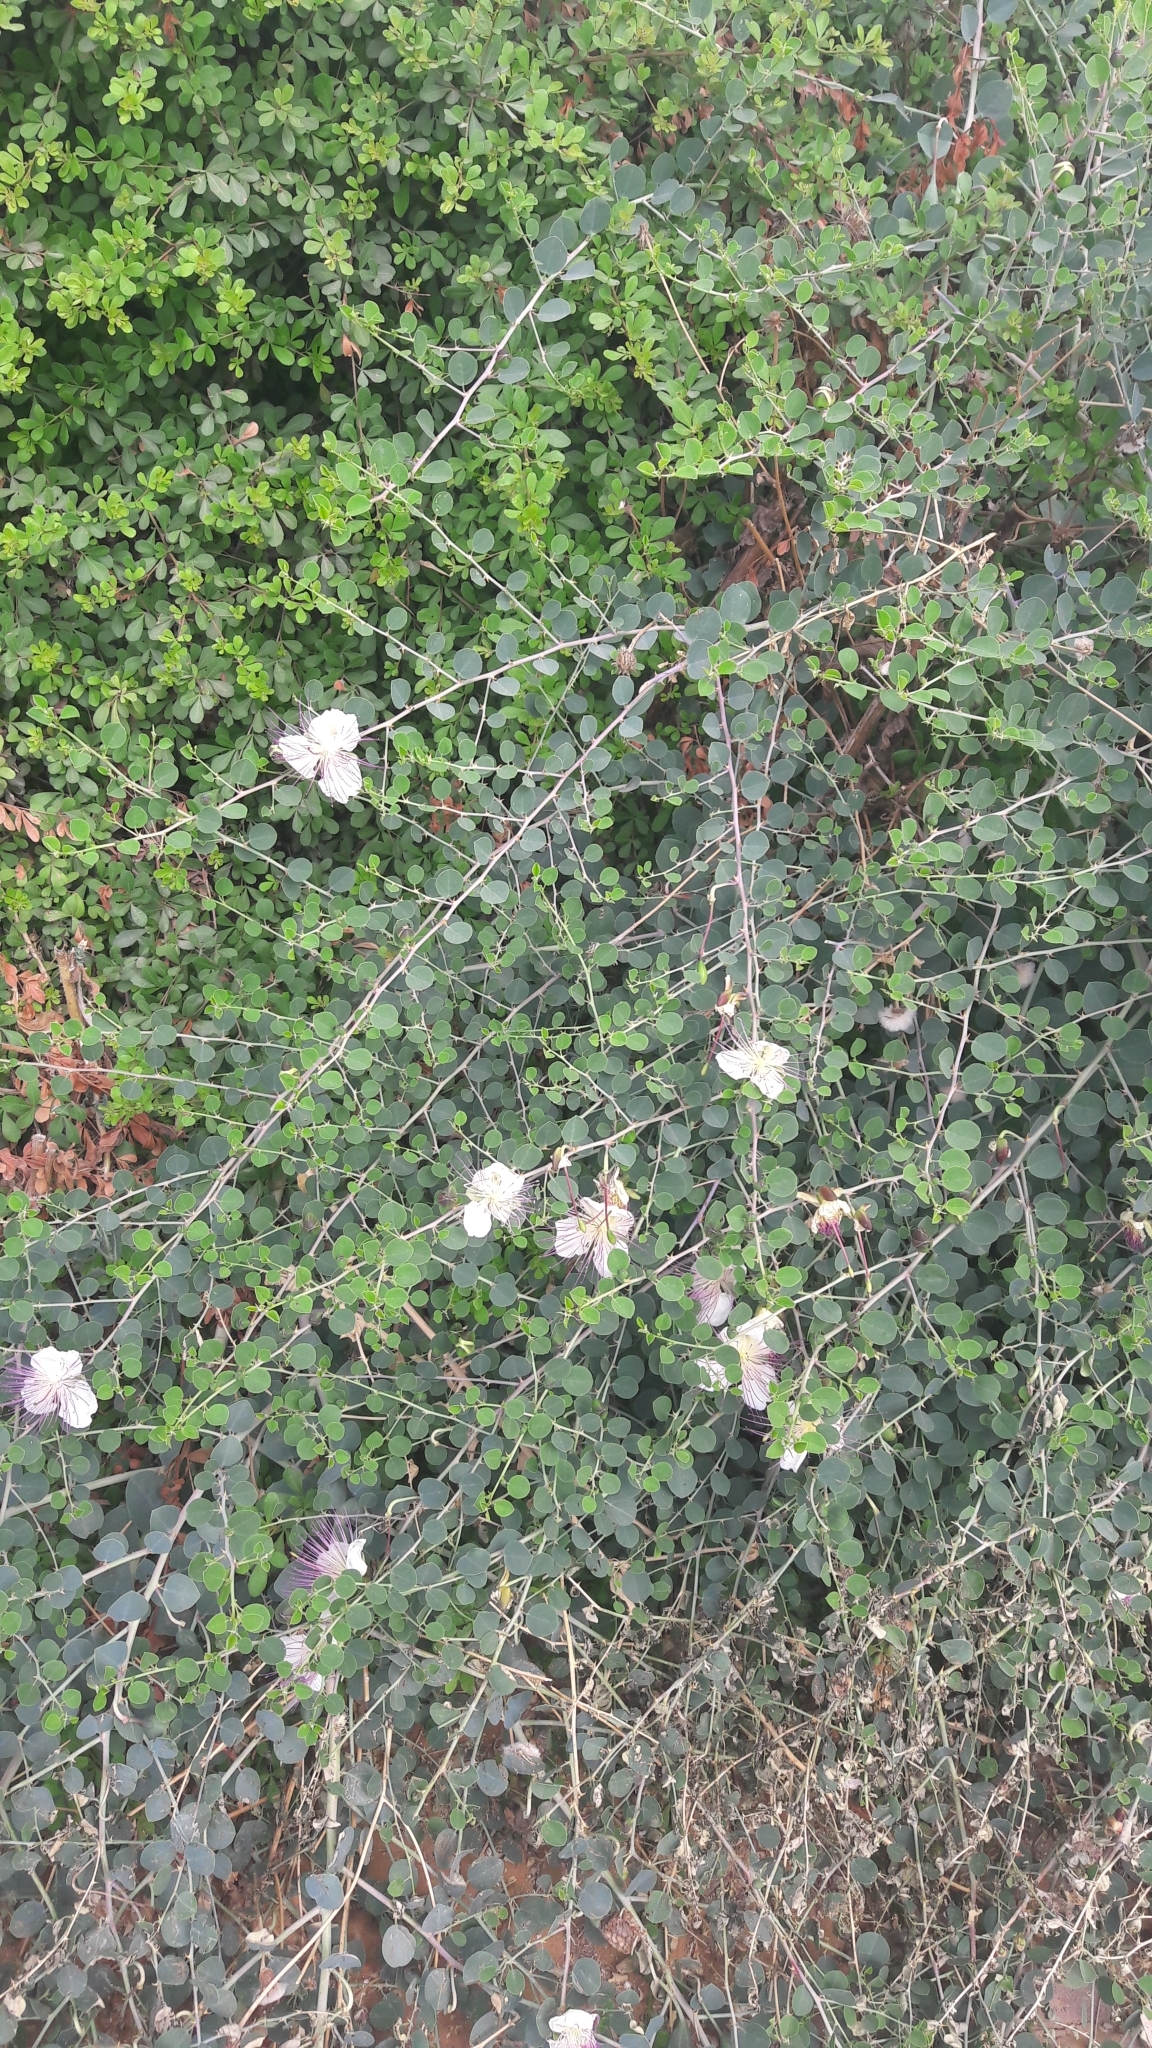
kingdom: Plantae
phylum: Tracheophyta
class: Magnoliopsida
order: Brassicales
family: Capparaceae
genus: Capparis
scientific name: Capparis spinosa
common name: Caper
